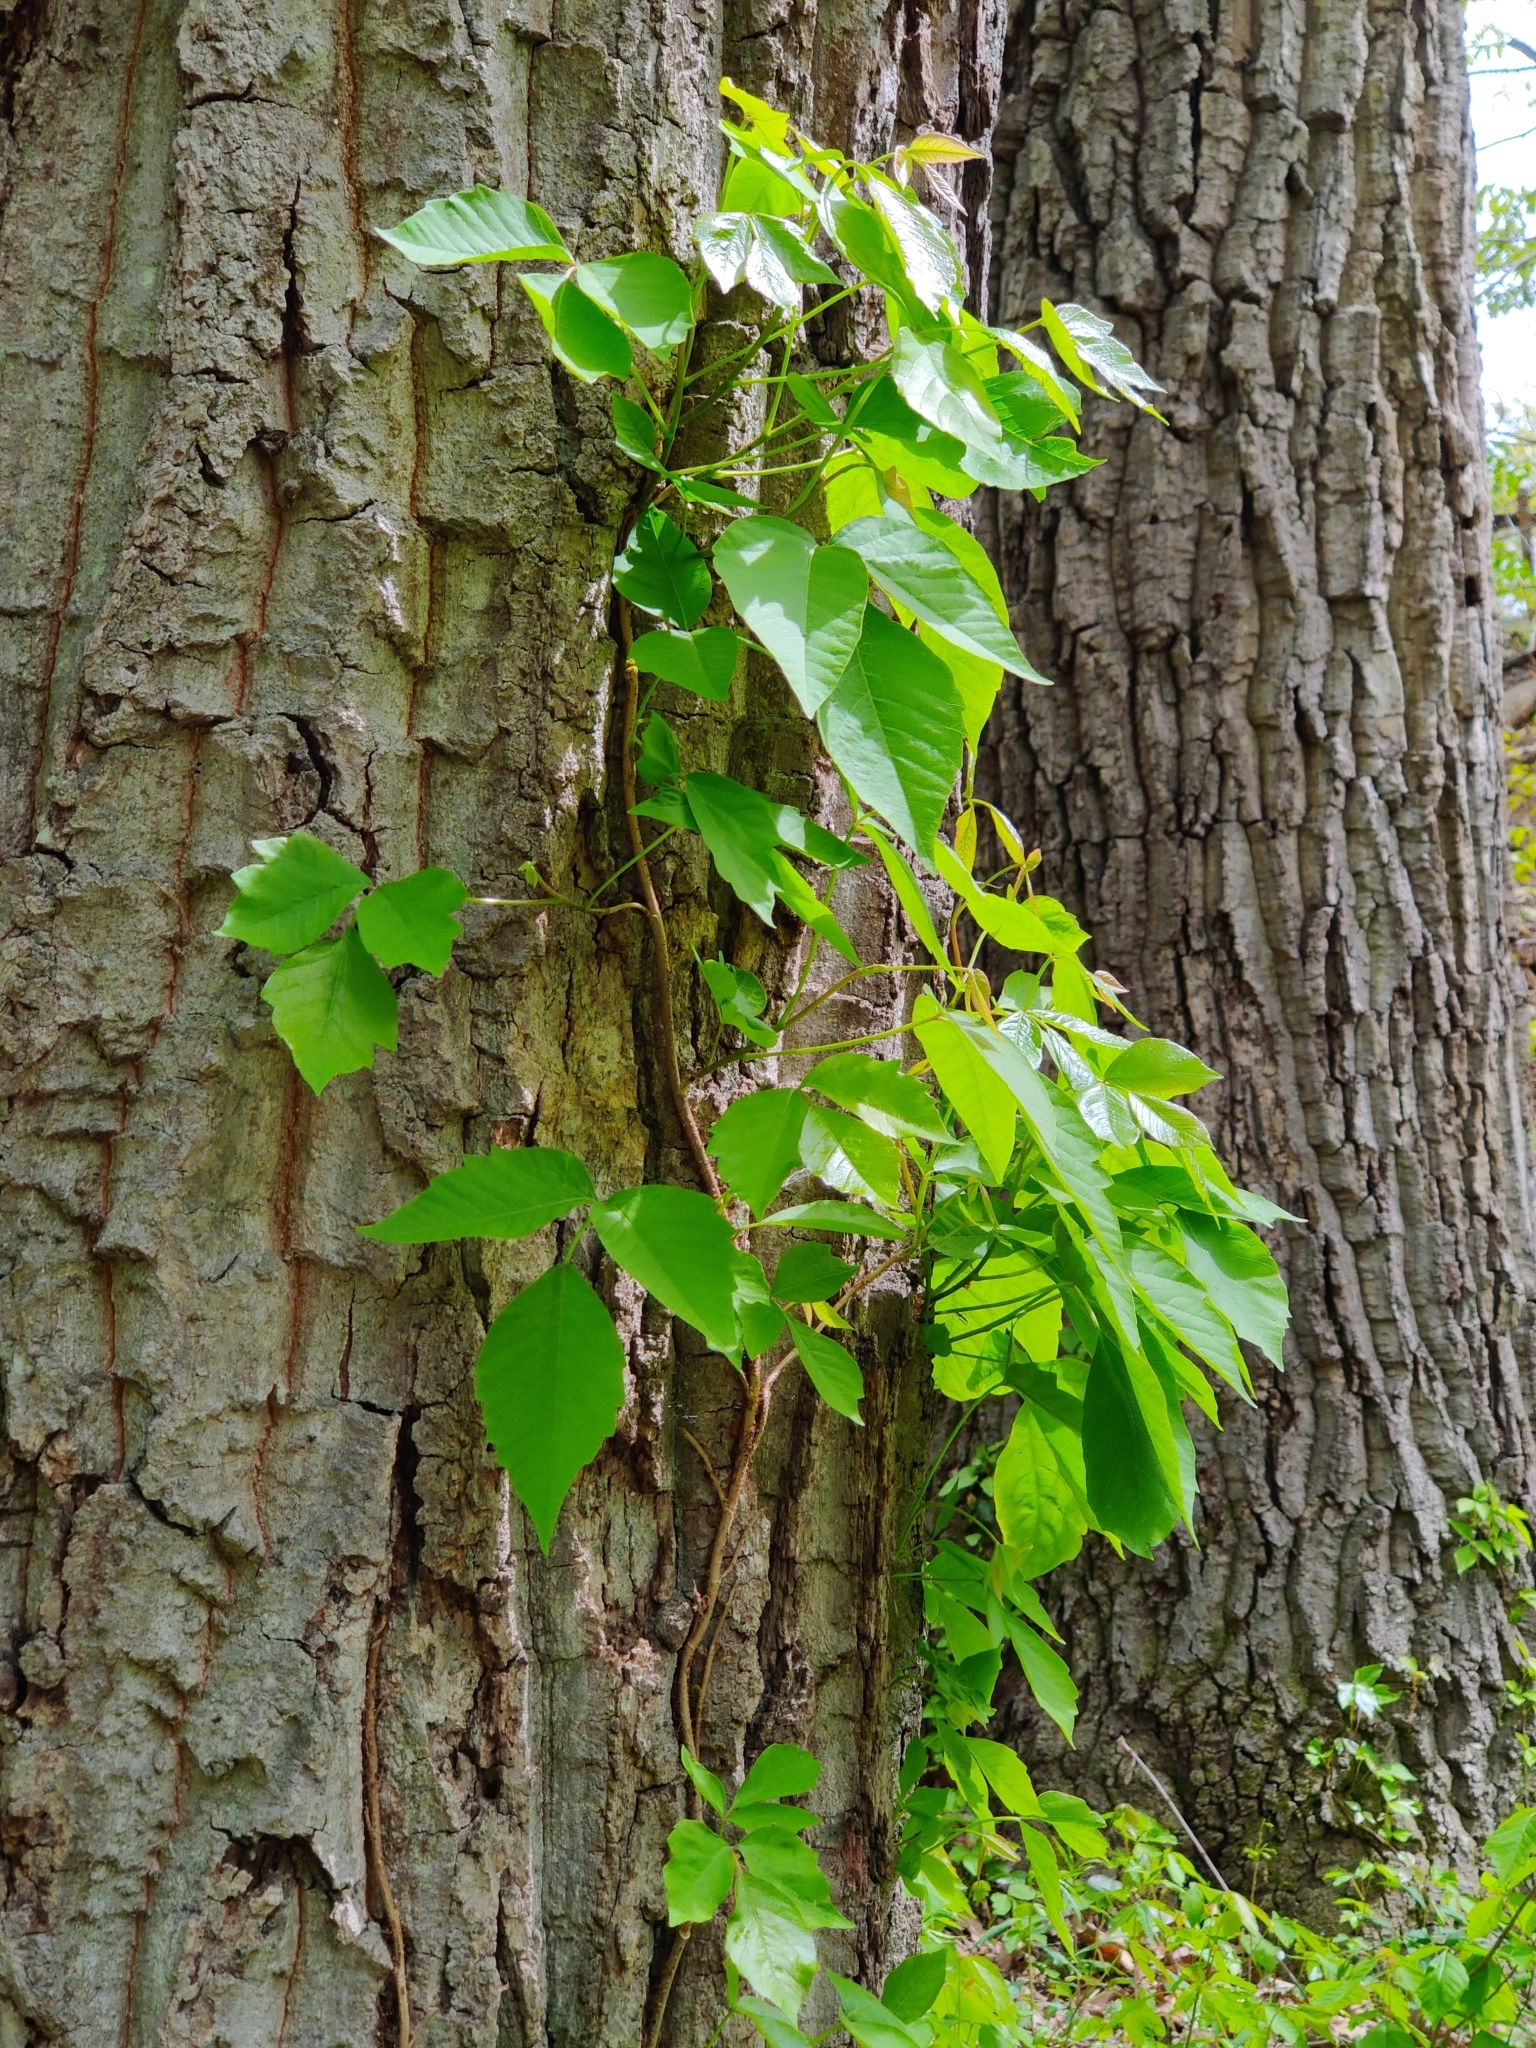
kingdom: Plantae
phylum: Tracheophyta
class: Magnoliopsida
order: Sapindales
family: Anacardiaceae
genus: Toxicodendron
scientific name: Toxicodendron radicans
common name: Poison ivy
